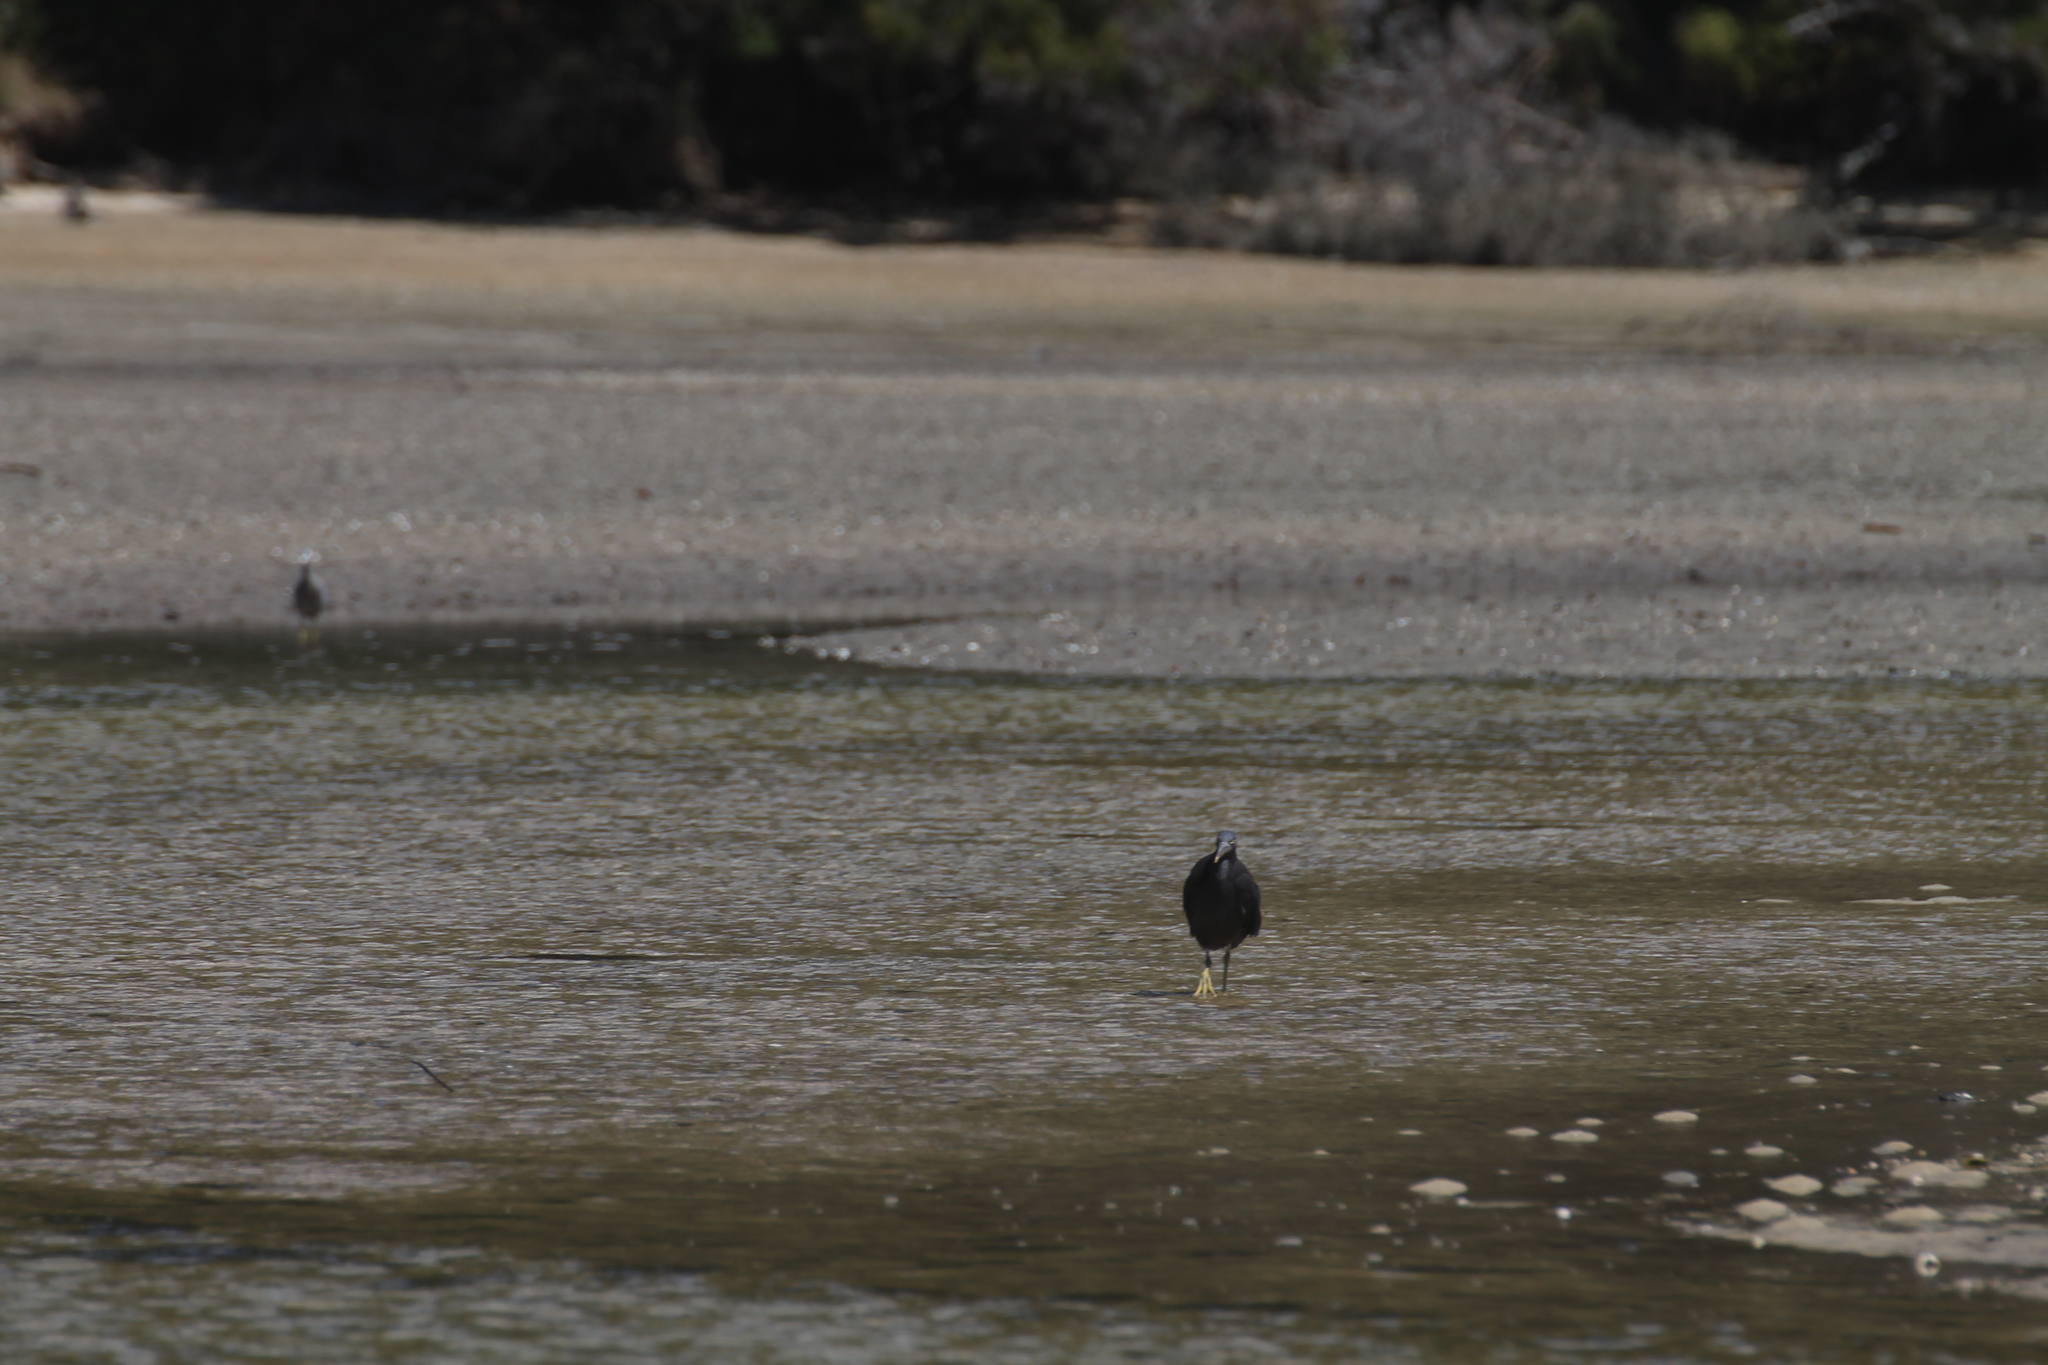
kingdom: Animalia
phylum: Chordata
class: Aves
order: Pelecaniformes
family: Ardeidae
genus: Egretta
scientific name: Egretta sacra
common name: Pacific reef heron
